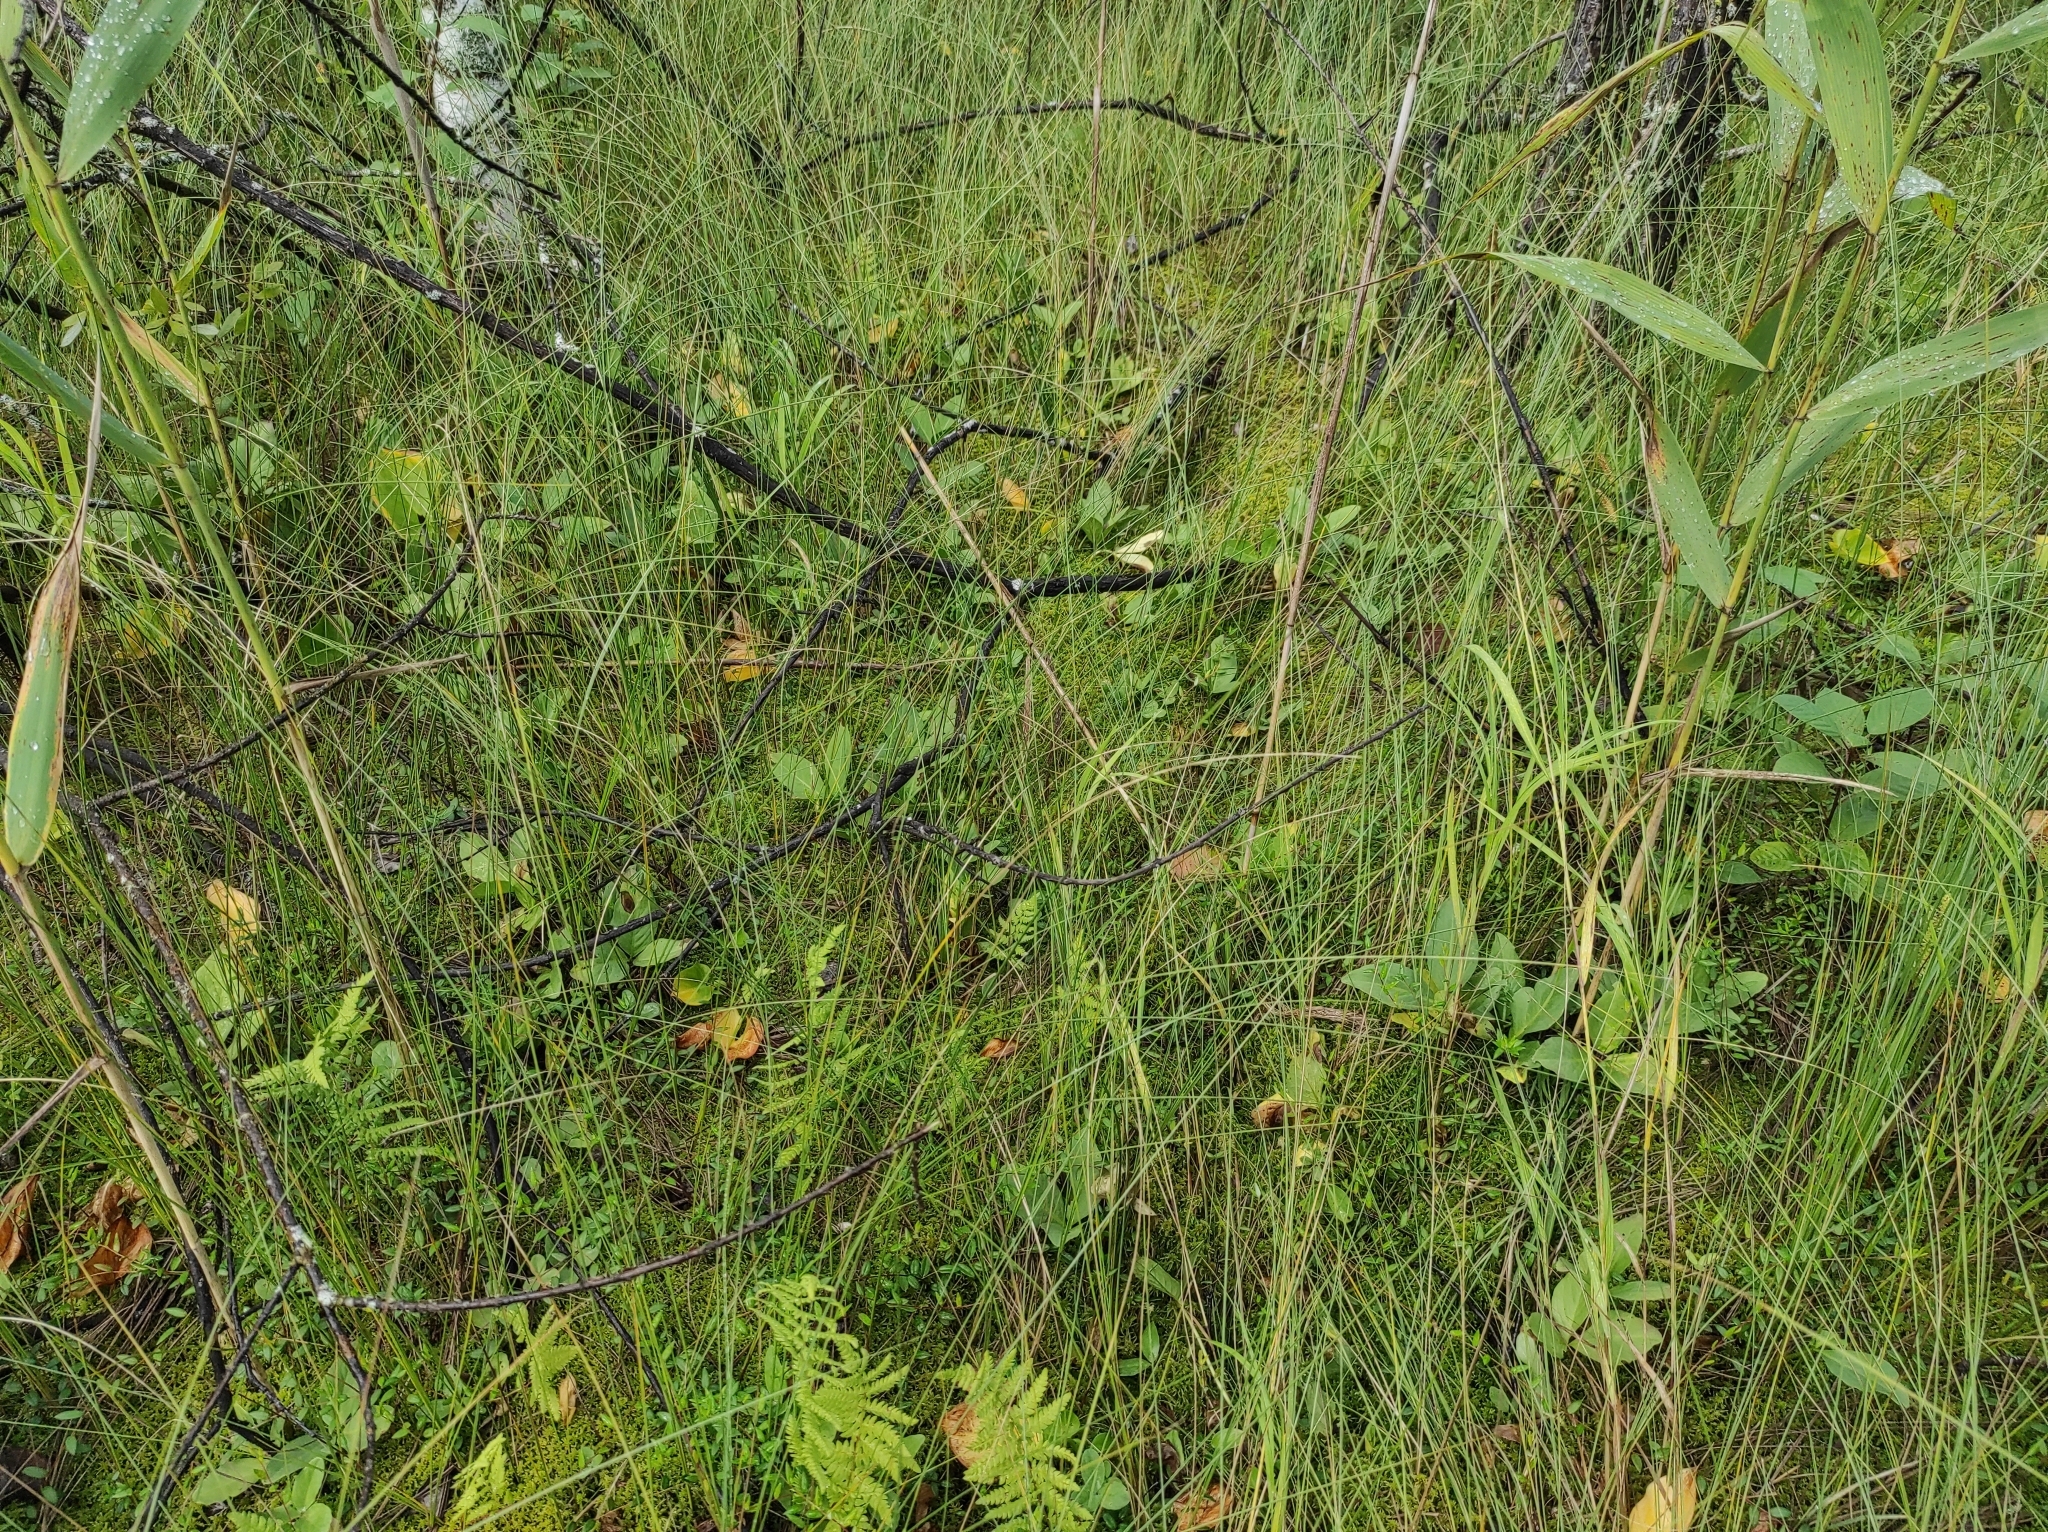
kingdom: Plantae
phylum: Tracheophyta
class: Magnoliopsida
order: Ericales
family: Ericaceae
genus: Vaccinium
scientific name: Vaccinium oxycoccos
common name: Cranberry
